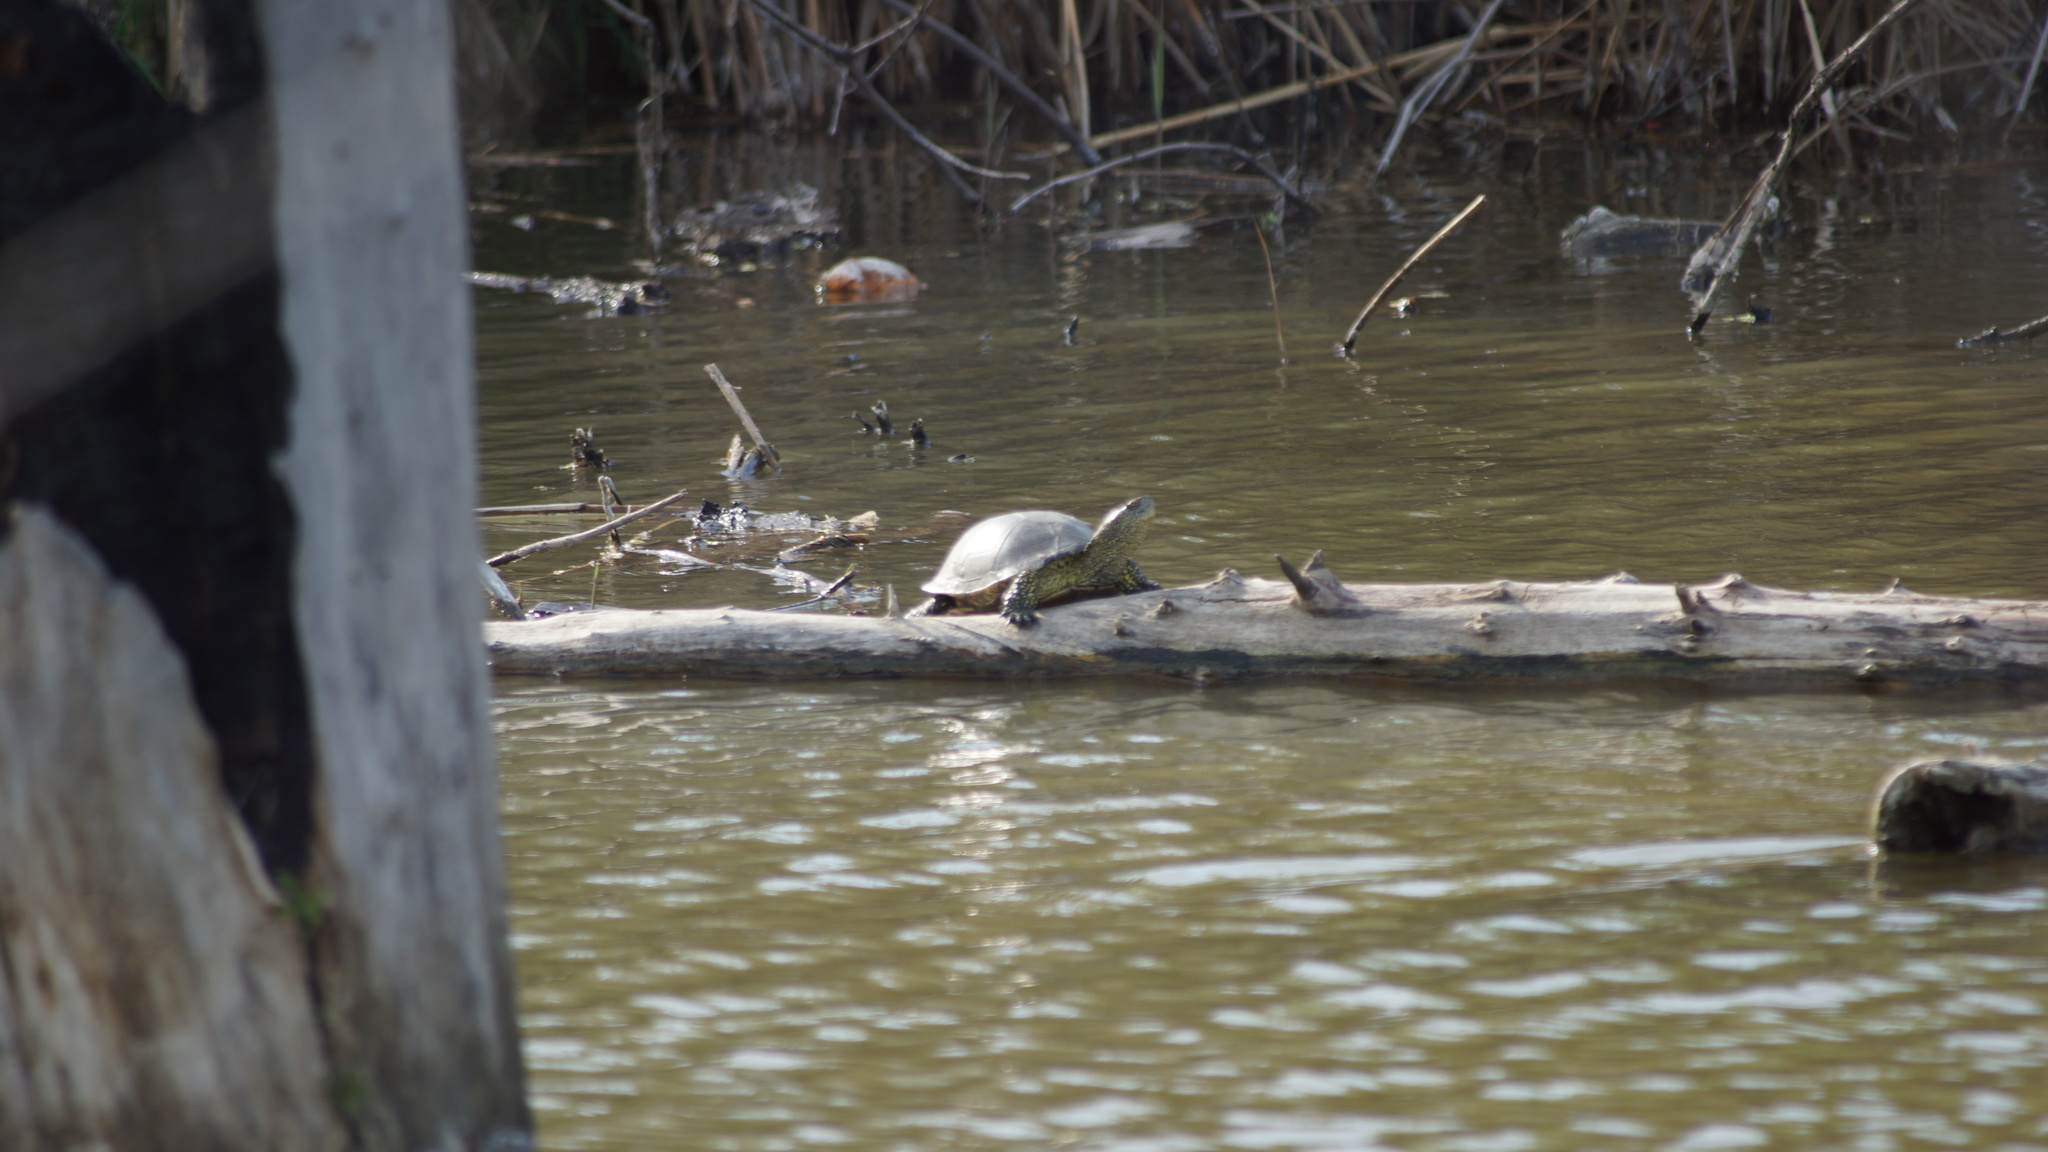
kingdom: Animalia
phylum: Chordata
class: Testudines
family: Emydidae
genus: Emys
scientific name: Emys orbicularis
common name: European pond turtle
